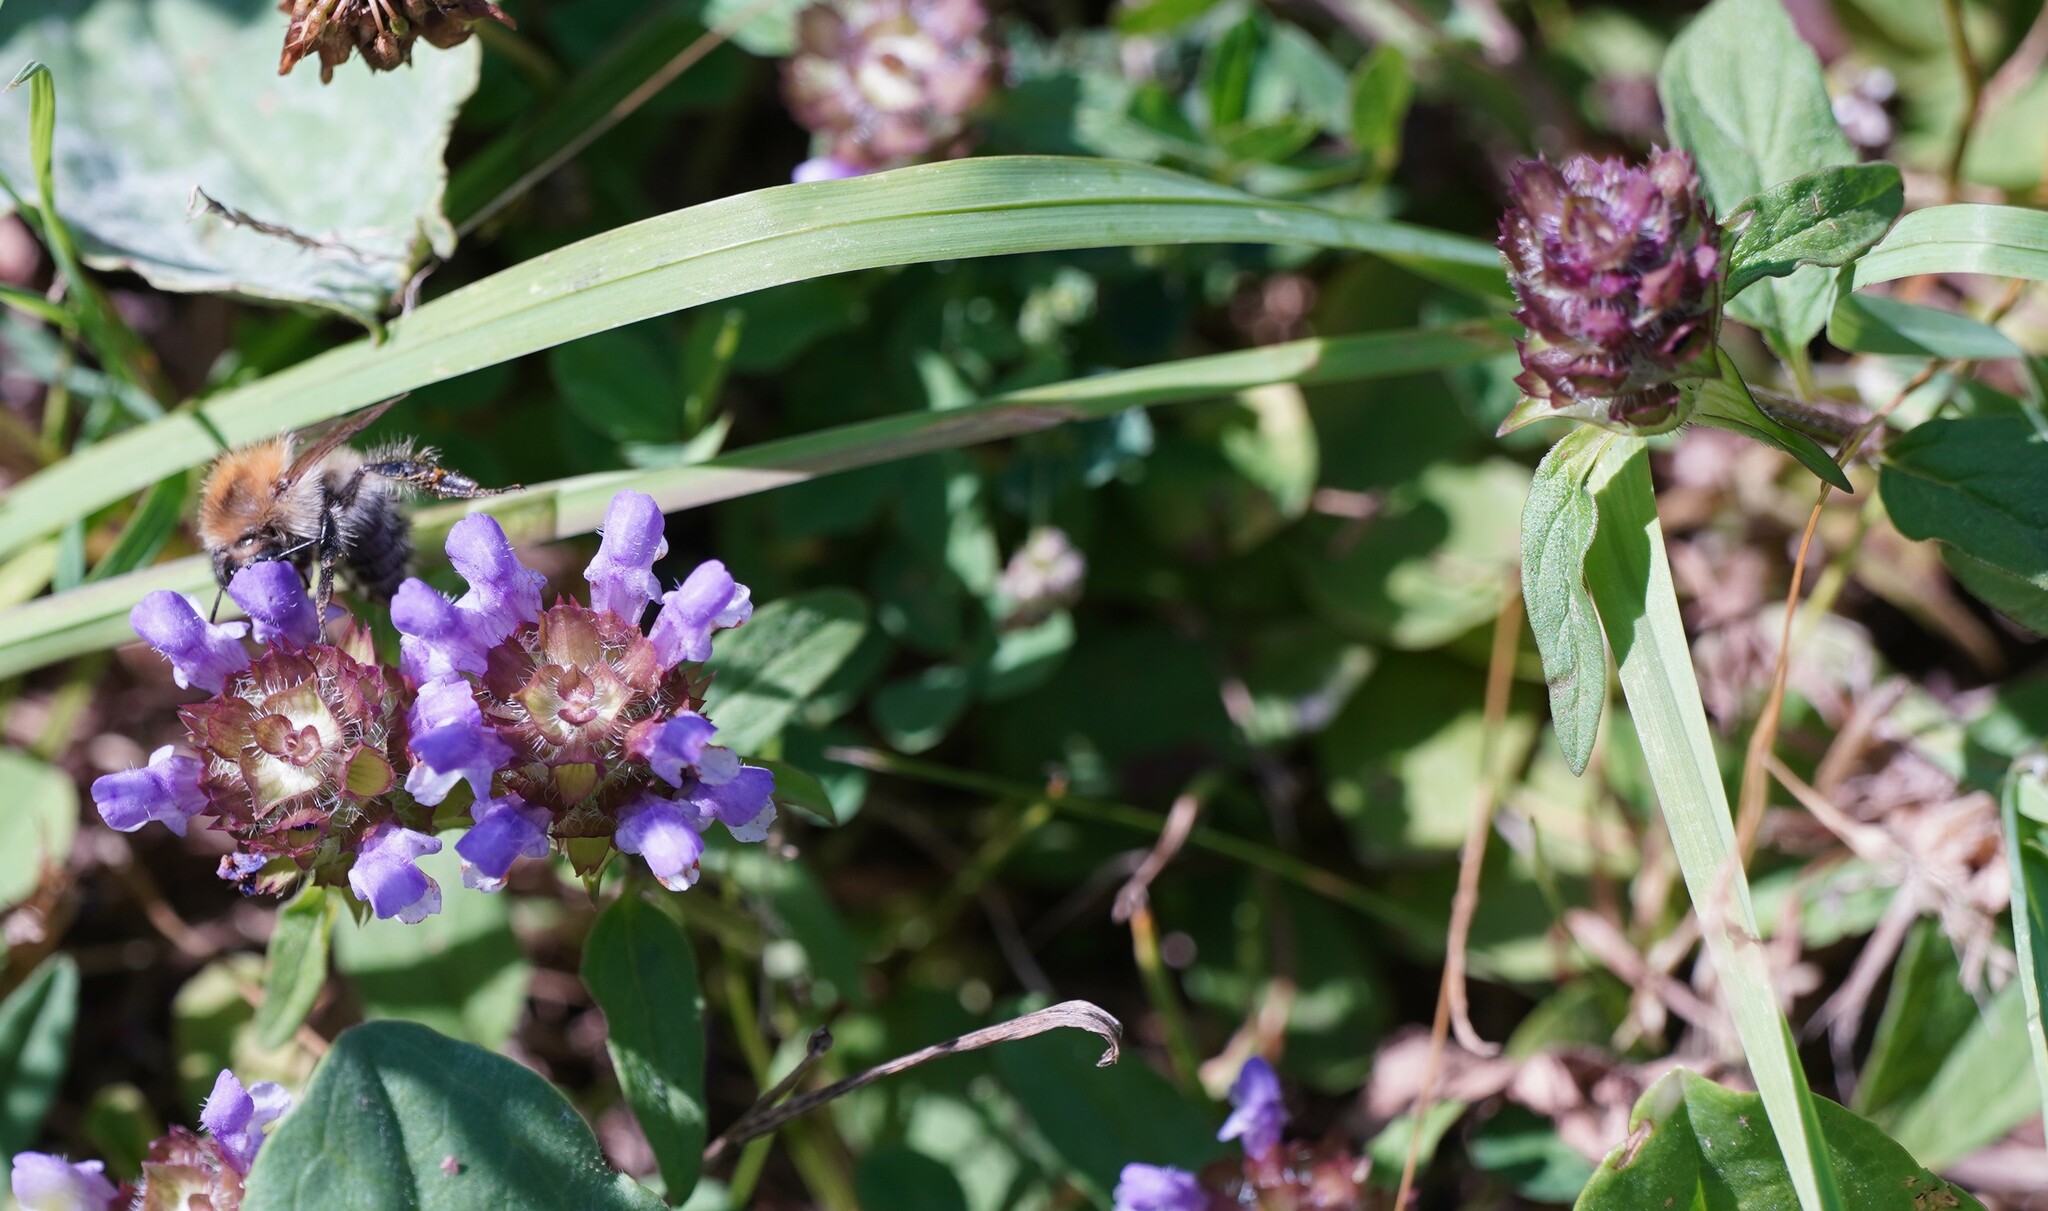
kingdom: Plantae
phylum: Tracheophyta
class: Magnoliopsida
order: Lamiales
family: Lamiaceae
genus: Prunella
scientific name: Prunella vulgaris
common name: Heal-all
